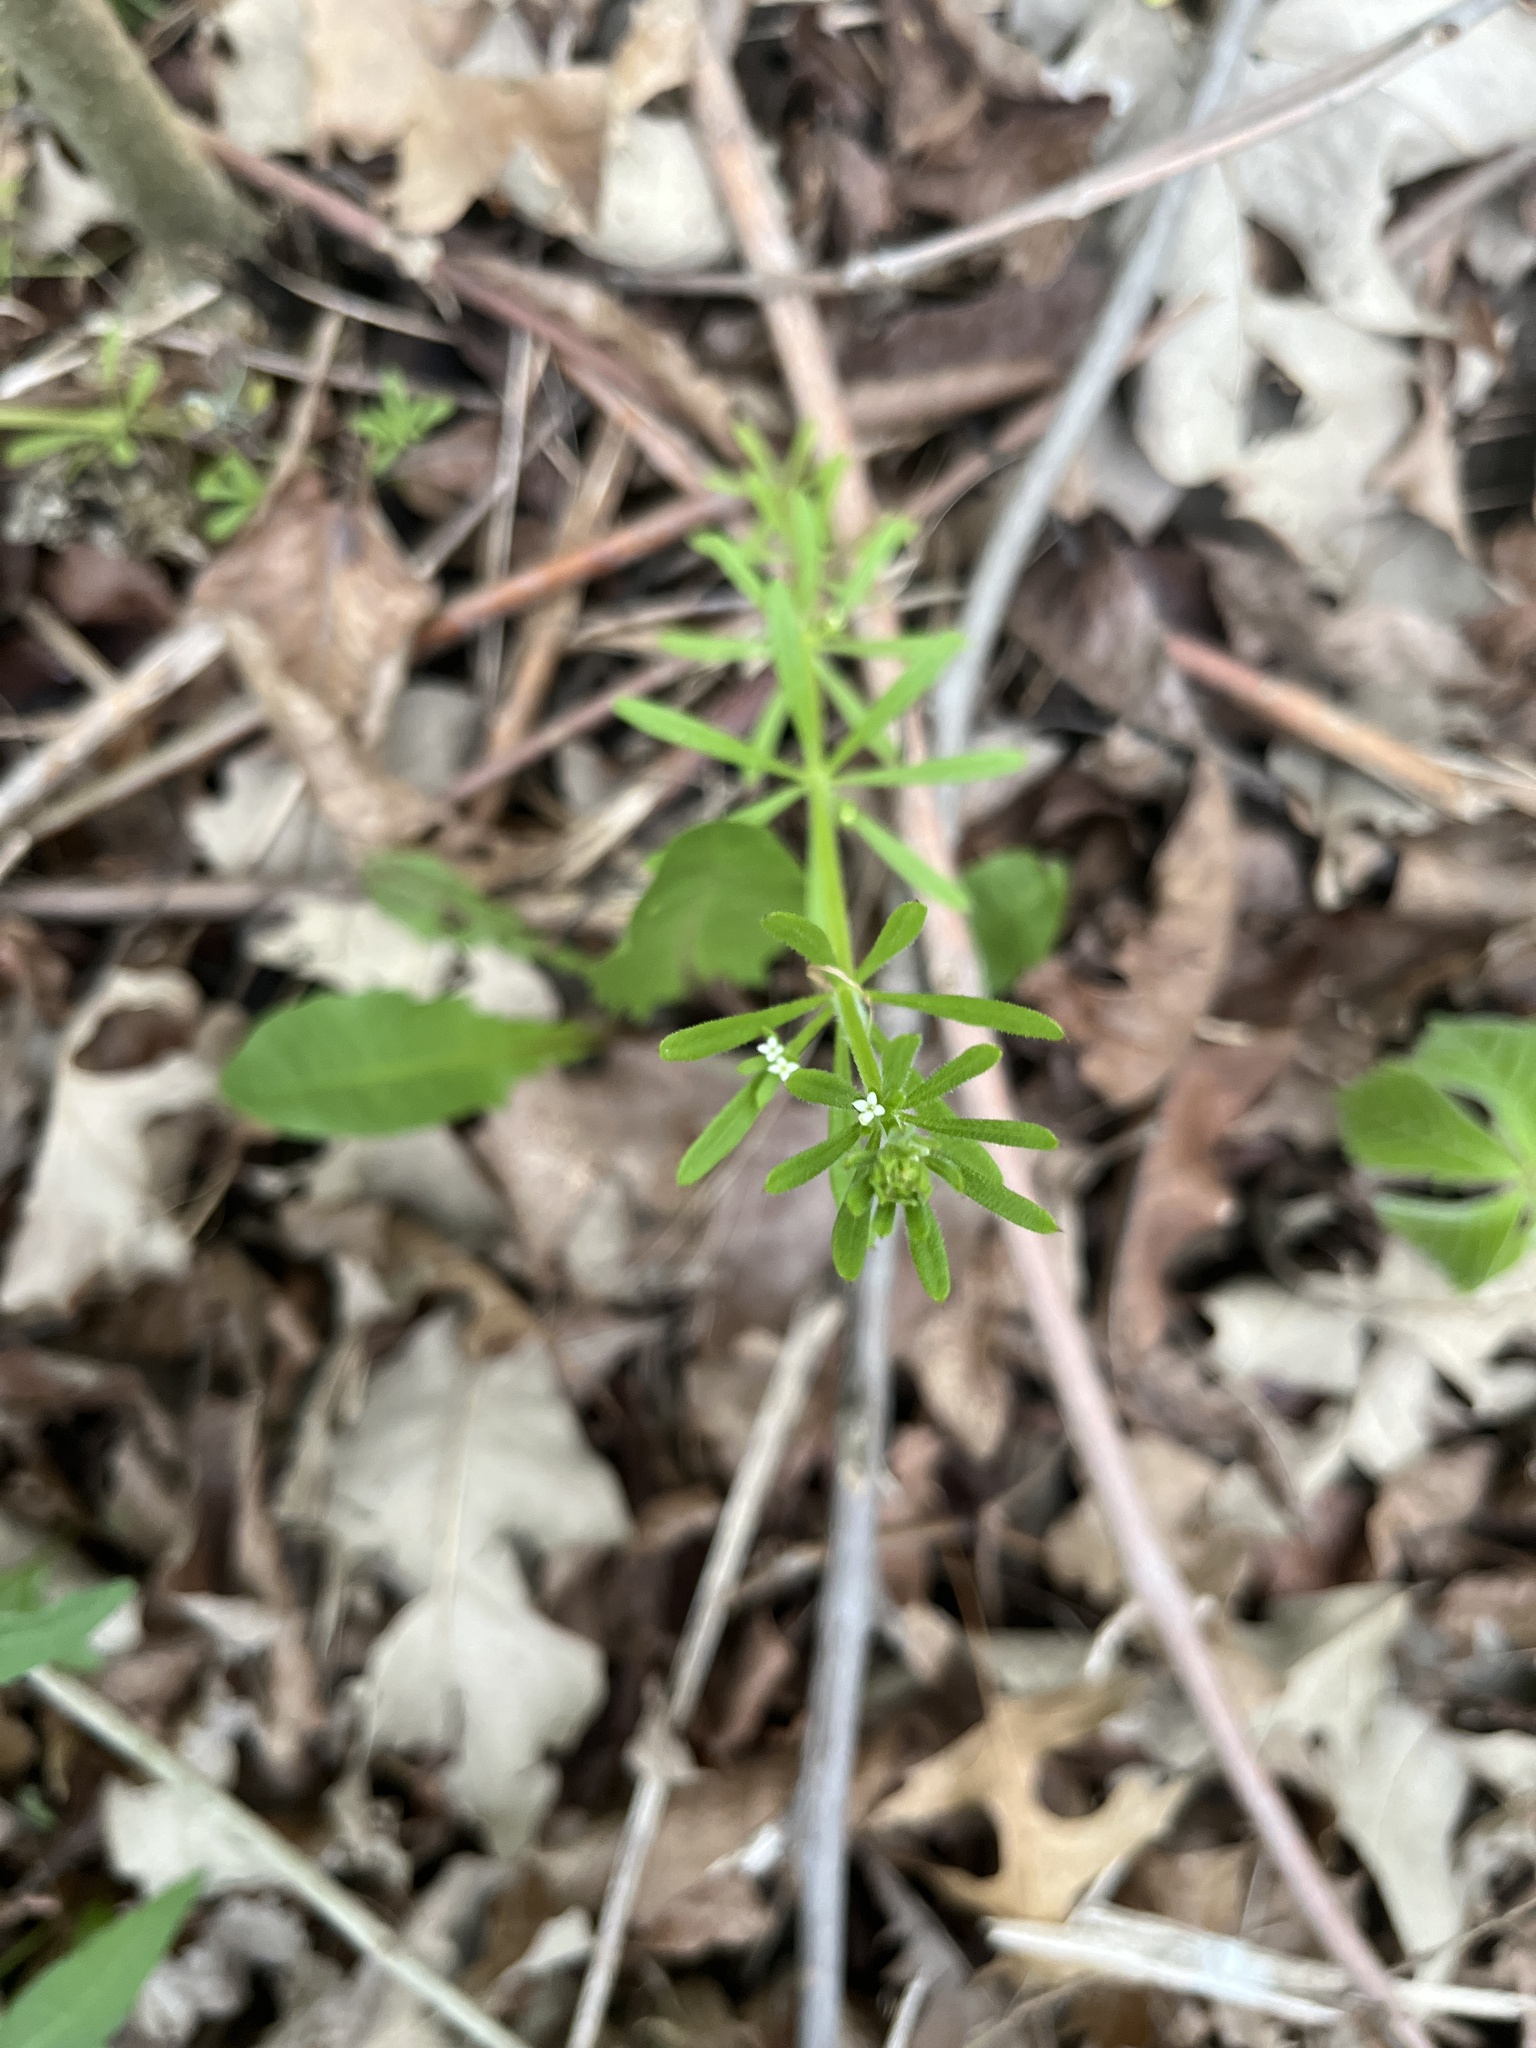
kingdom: Plantae
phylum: Tracheophyta
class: Magnoliopsida
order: Gentianales
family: Rubiaceae
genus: Galium
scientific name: Galium aparine
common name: Cleavers
